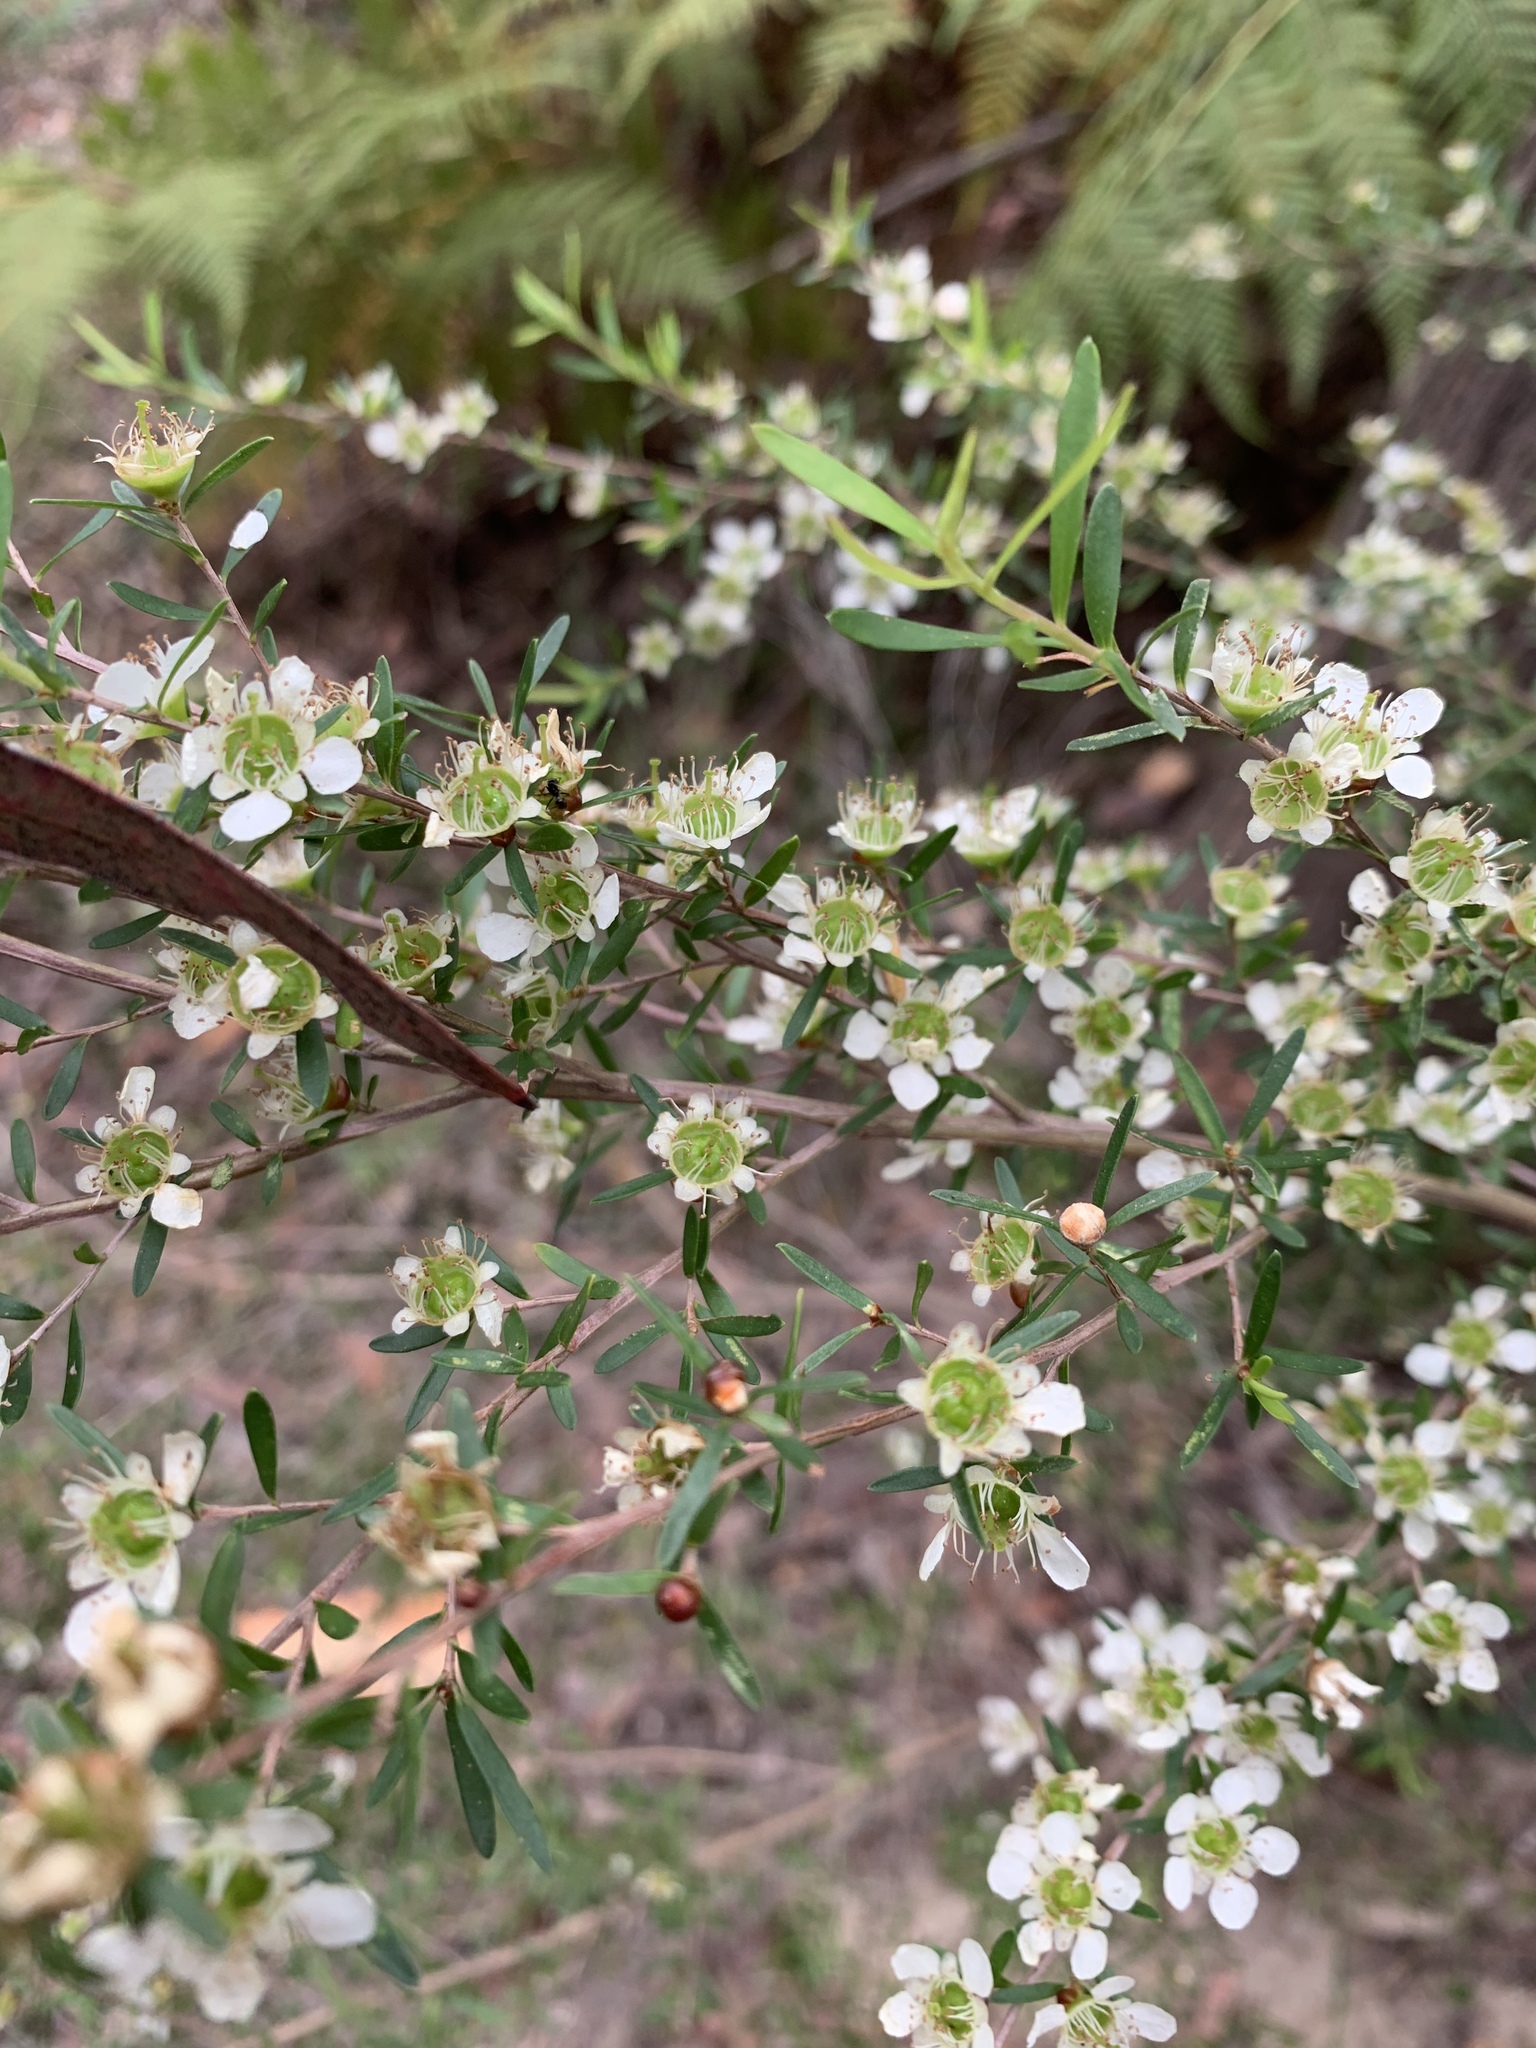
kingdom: Plantae
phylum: Tracheophyta
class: Magnoliopsida
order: Myrtales
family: Myrtaceae
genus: Leptospermum
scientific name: Leptospermum polygalifolium
